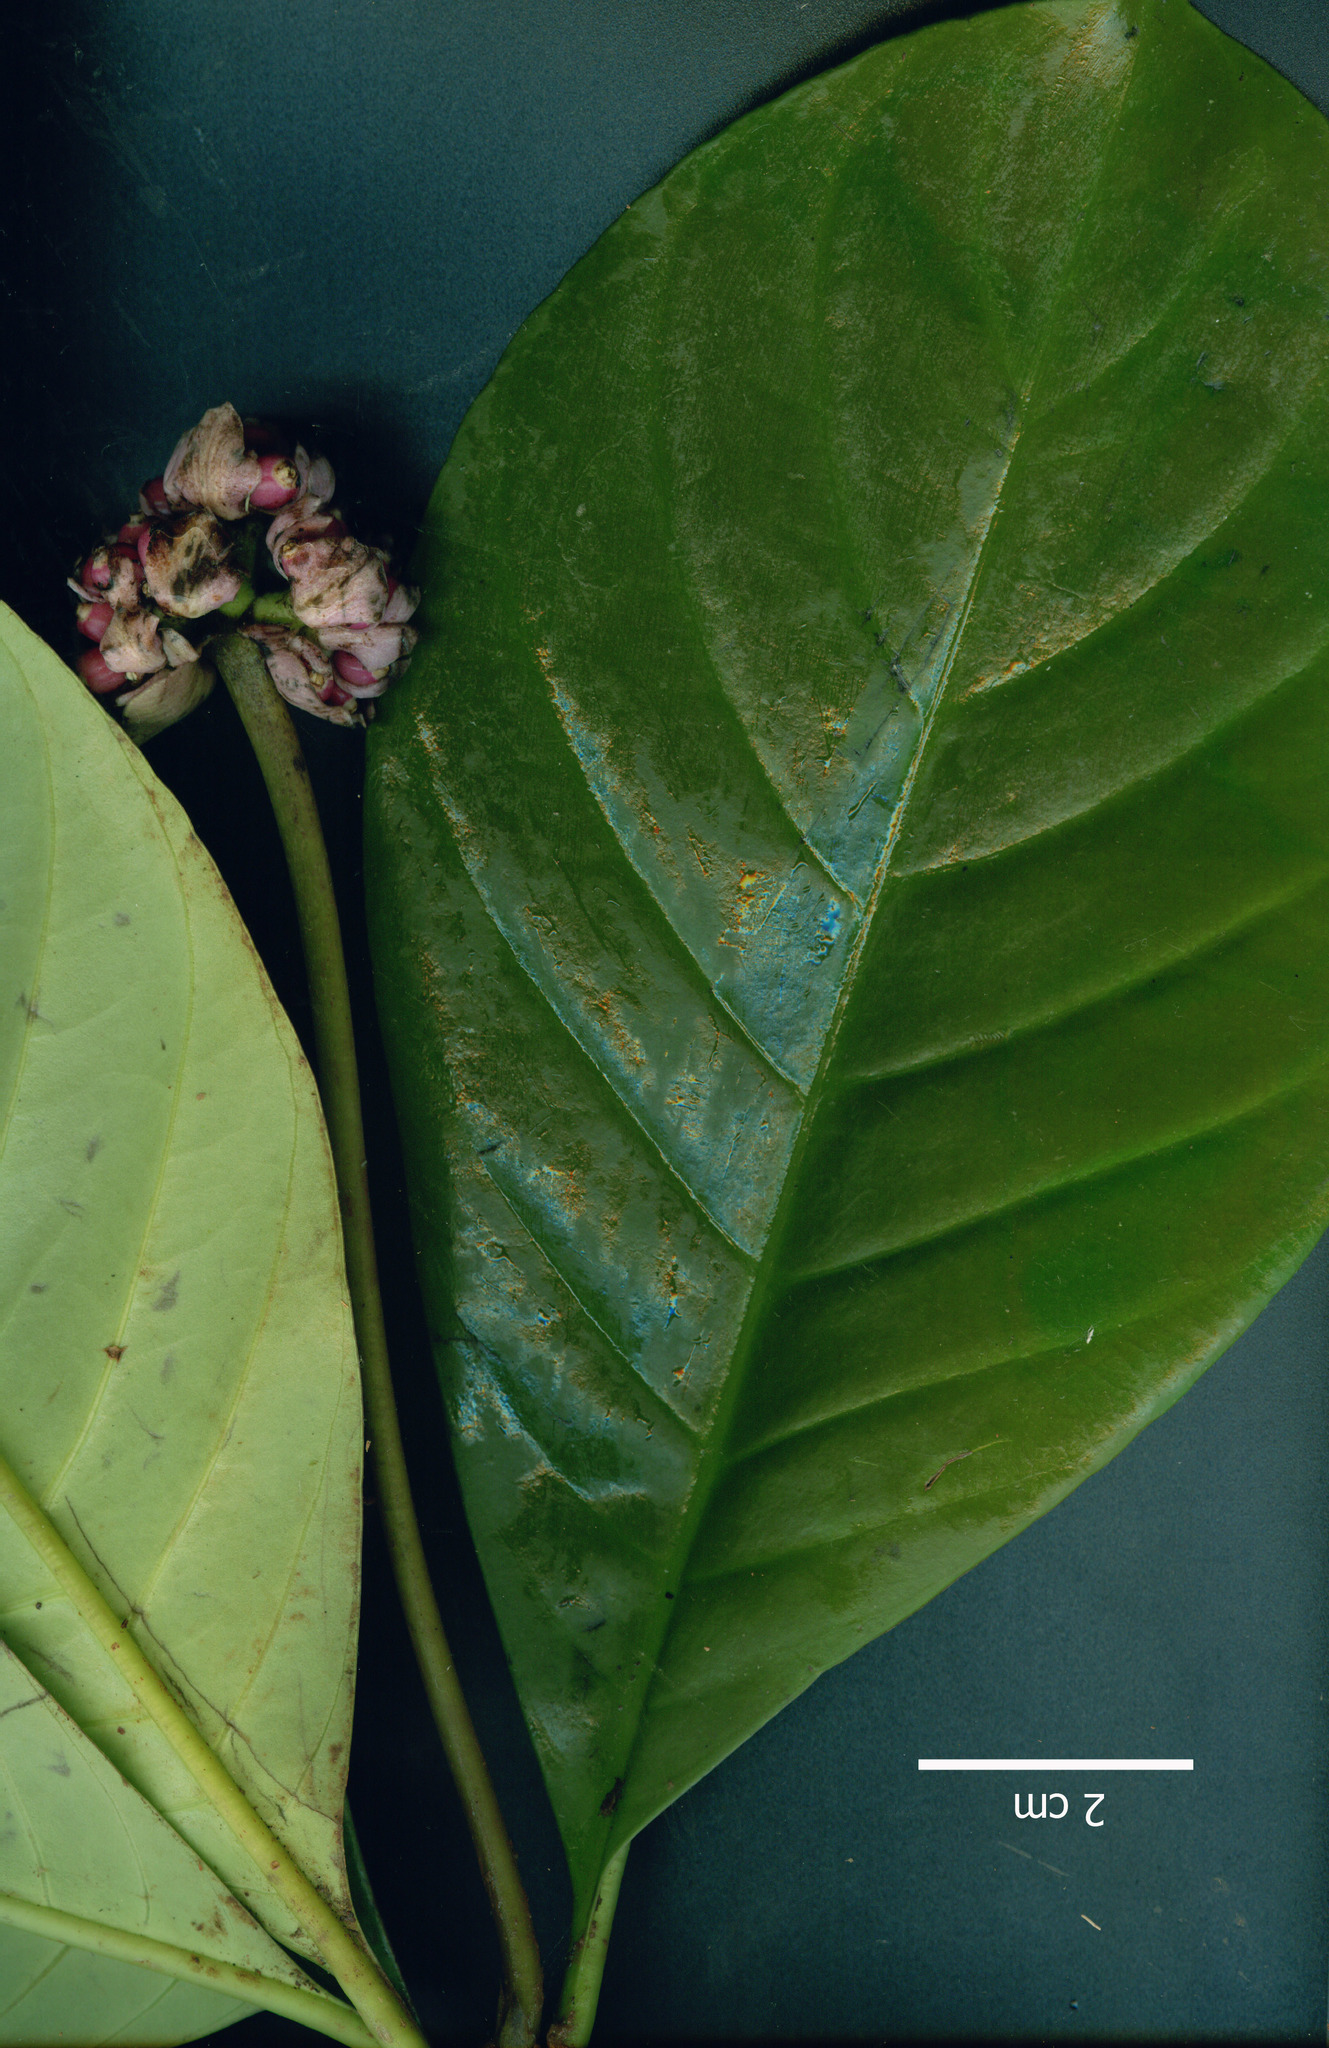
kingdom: Plantae
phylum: Tracheophyta
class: Magnoliopsida
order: Gentianales
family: Rubiaceae
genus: Carapichea
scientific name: Carapichea affinis
